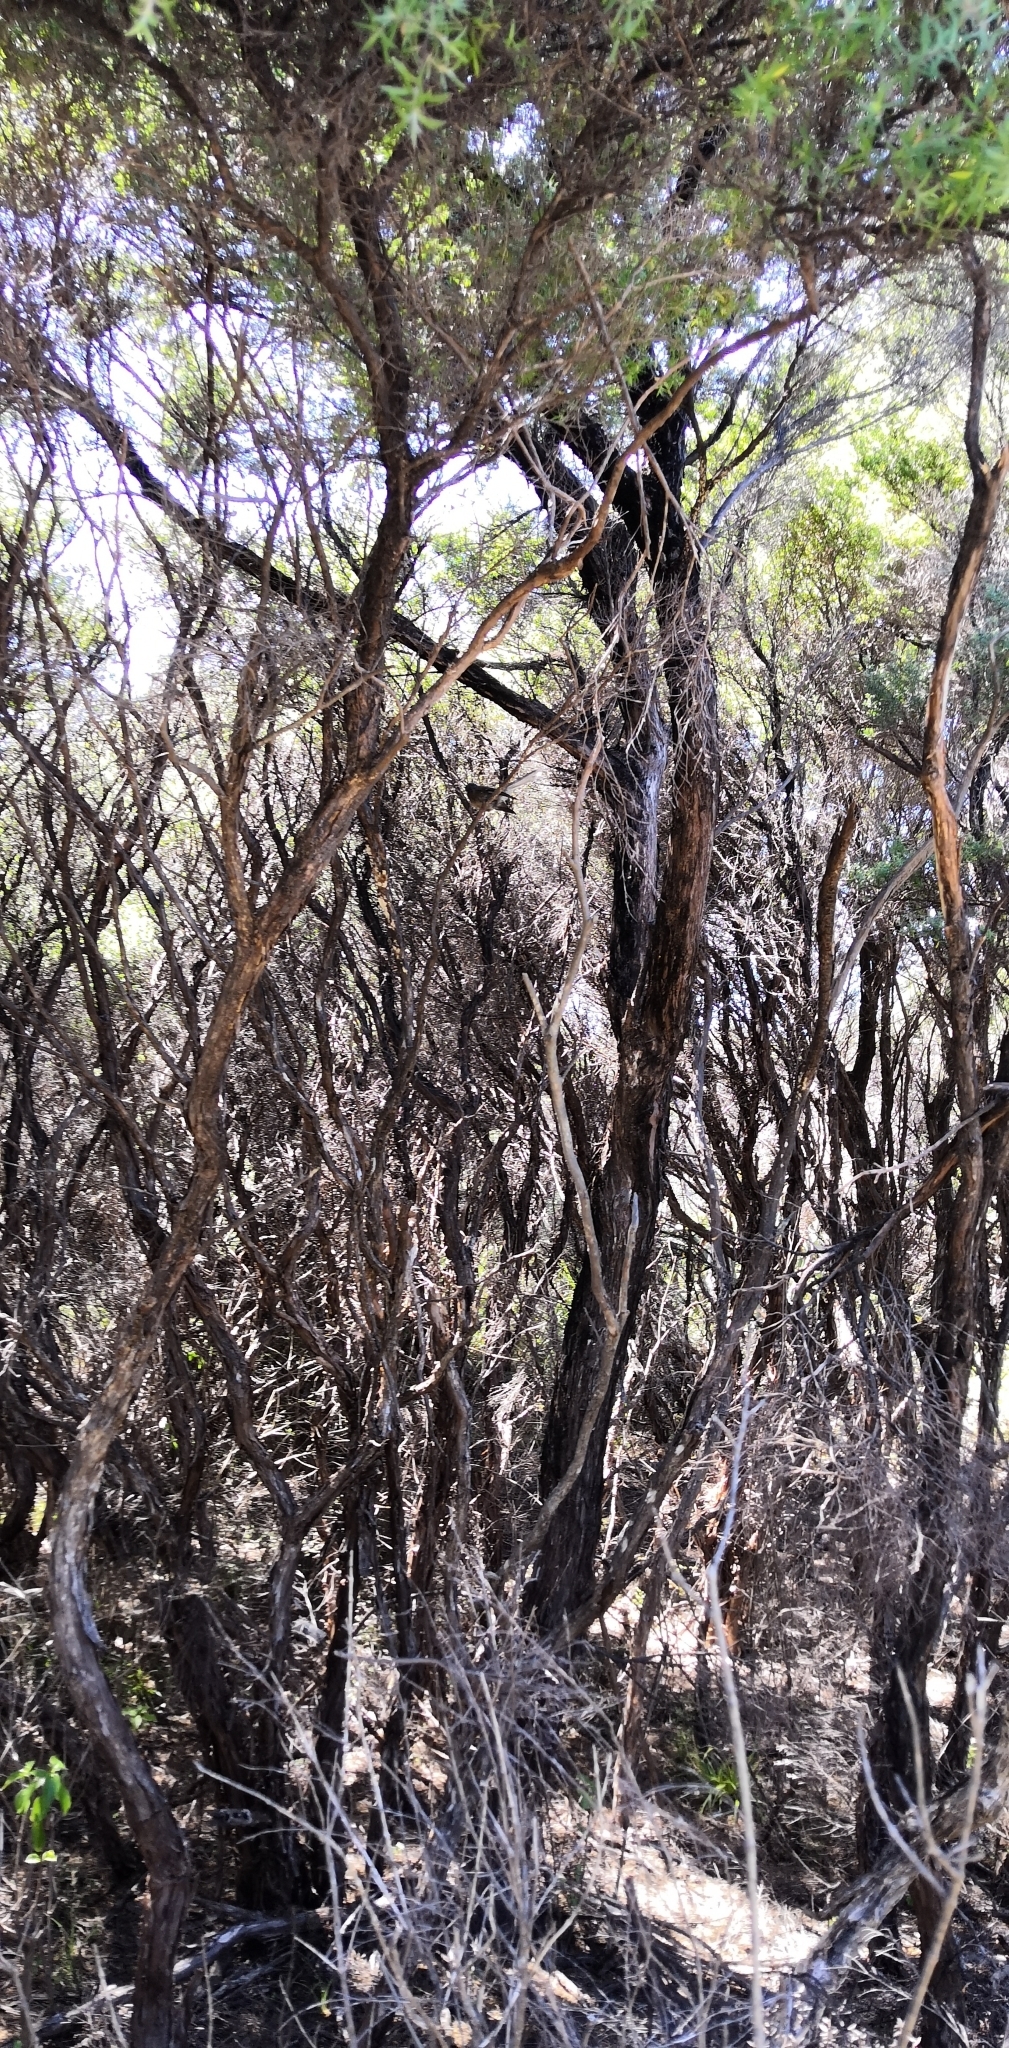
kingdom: Animalia
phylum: Chordata
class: Aves
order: Passeriformes
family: Rhipiduridae
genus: Rhipidura
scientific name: Rhipidura fuliginosa
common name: New zealand fantail
